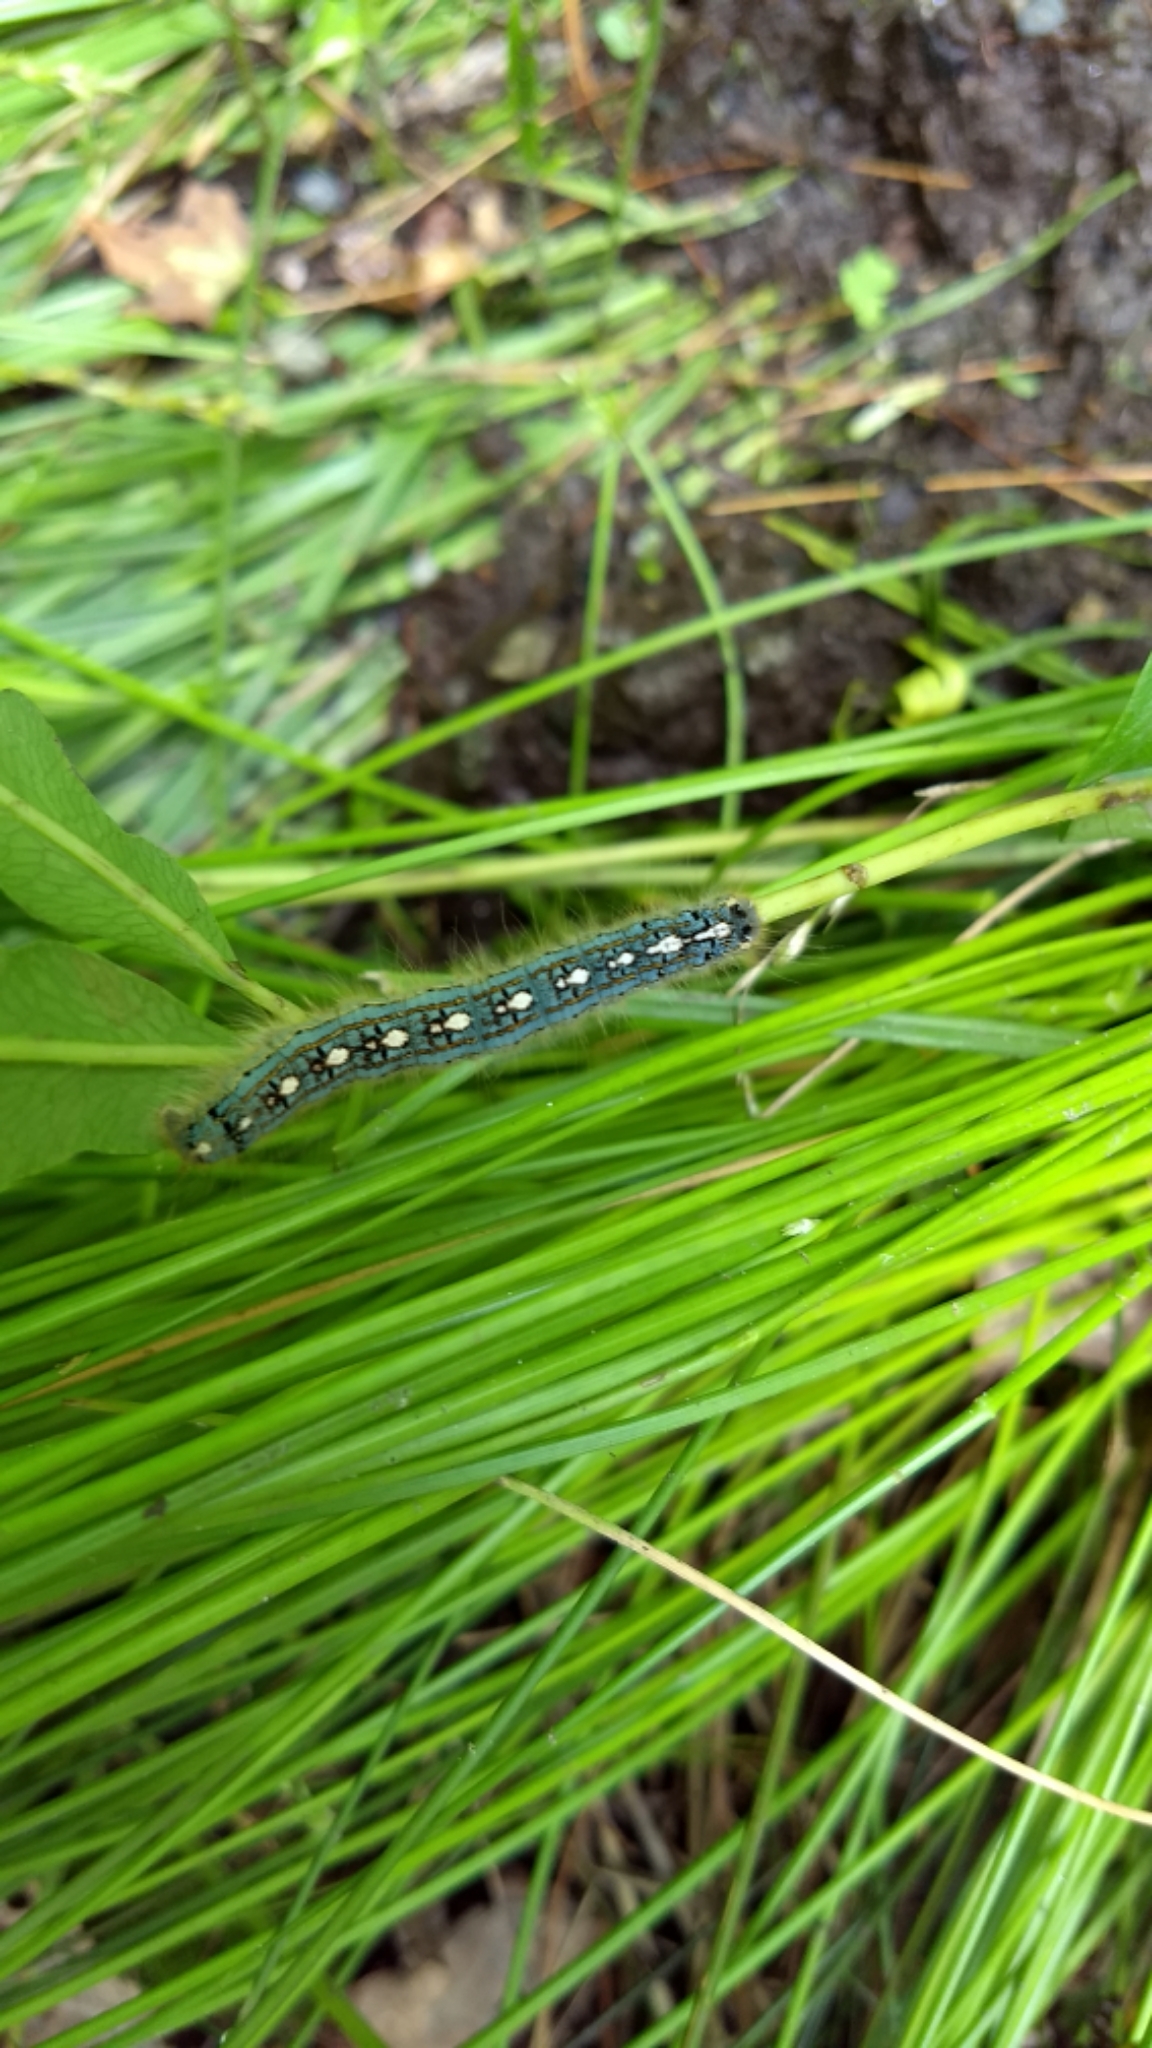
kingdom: Animalia
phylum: Arthropoda
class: Insecta
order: Lepidoptera
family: Lasiocampidae
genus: Malacosoma
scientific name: Malacosoma disstria
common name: Forest tent caterpillar
